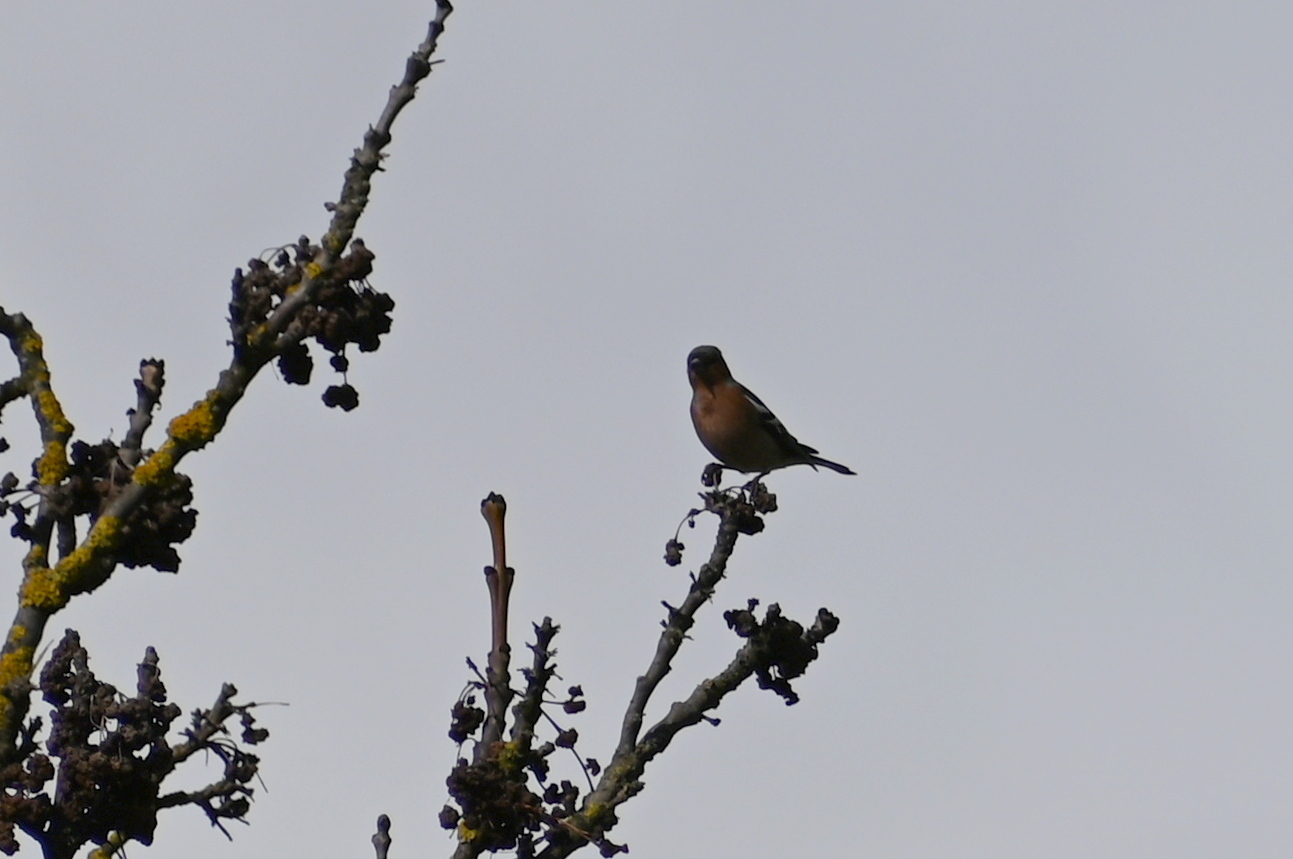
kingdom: Animalia
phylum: Chordata
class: Aves
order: Passeriformes
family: Fringillidae
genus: Fringilla
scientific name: Fringilla coelebs
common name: Common chaffinch
